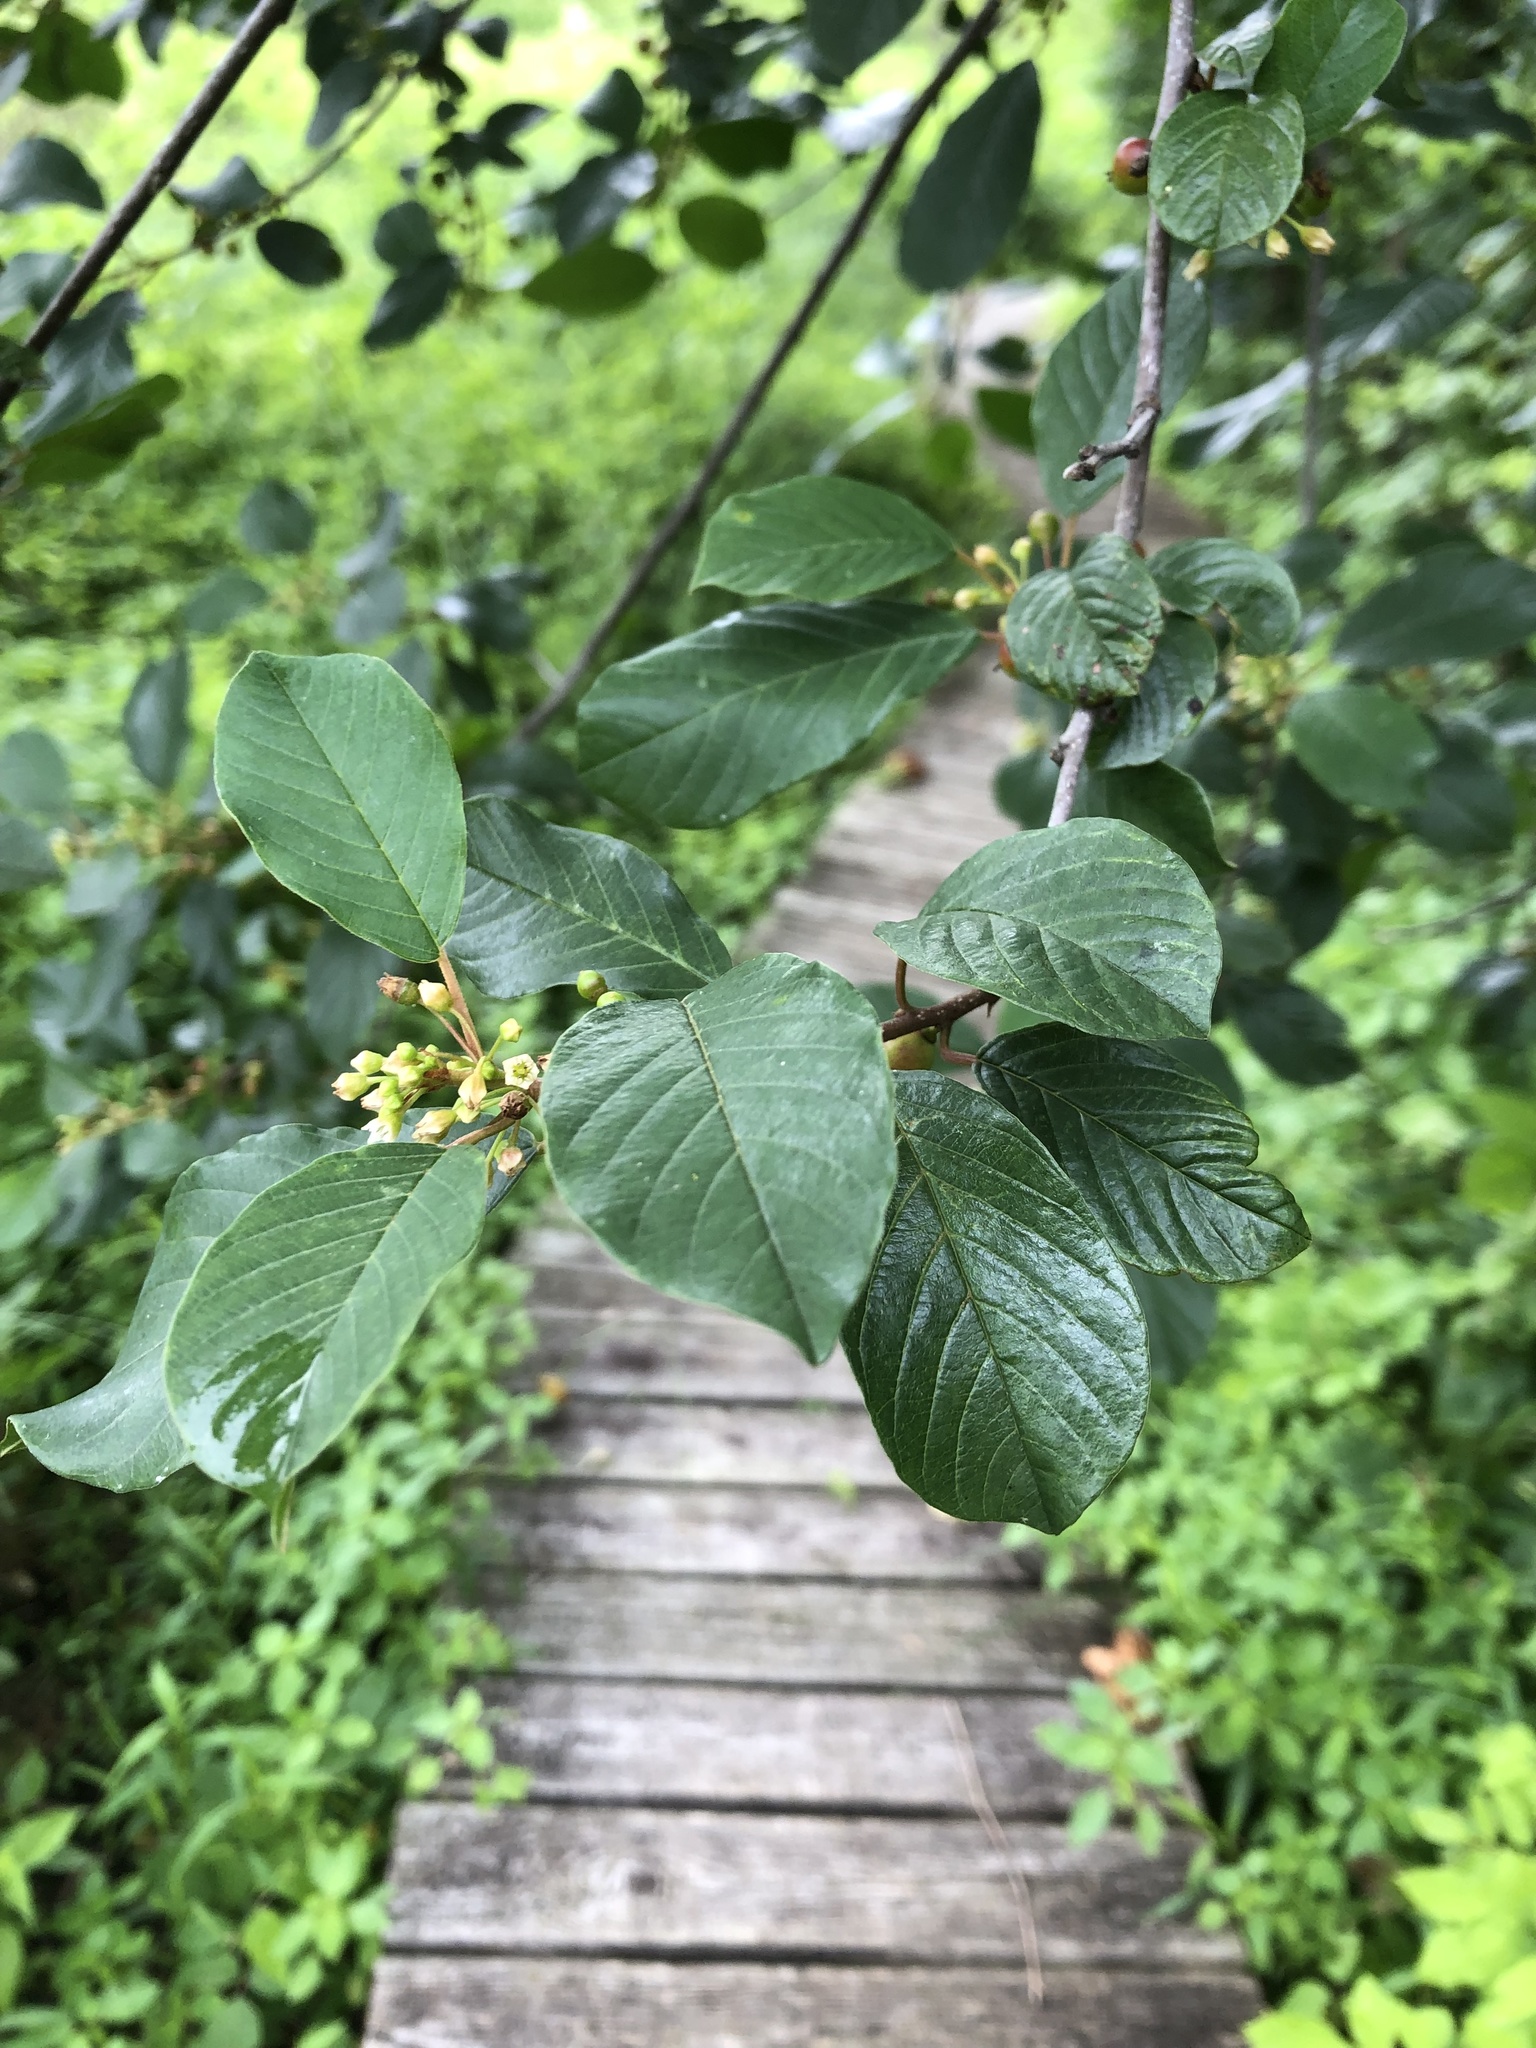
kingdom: Plantae
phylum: Tracheophyta
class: Magnoliopsida
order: Rosales
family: Rhamnaceae
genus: Frangula
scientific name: Frangula alnus
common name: Alder buckthorn
